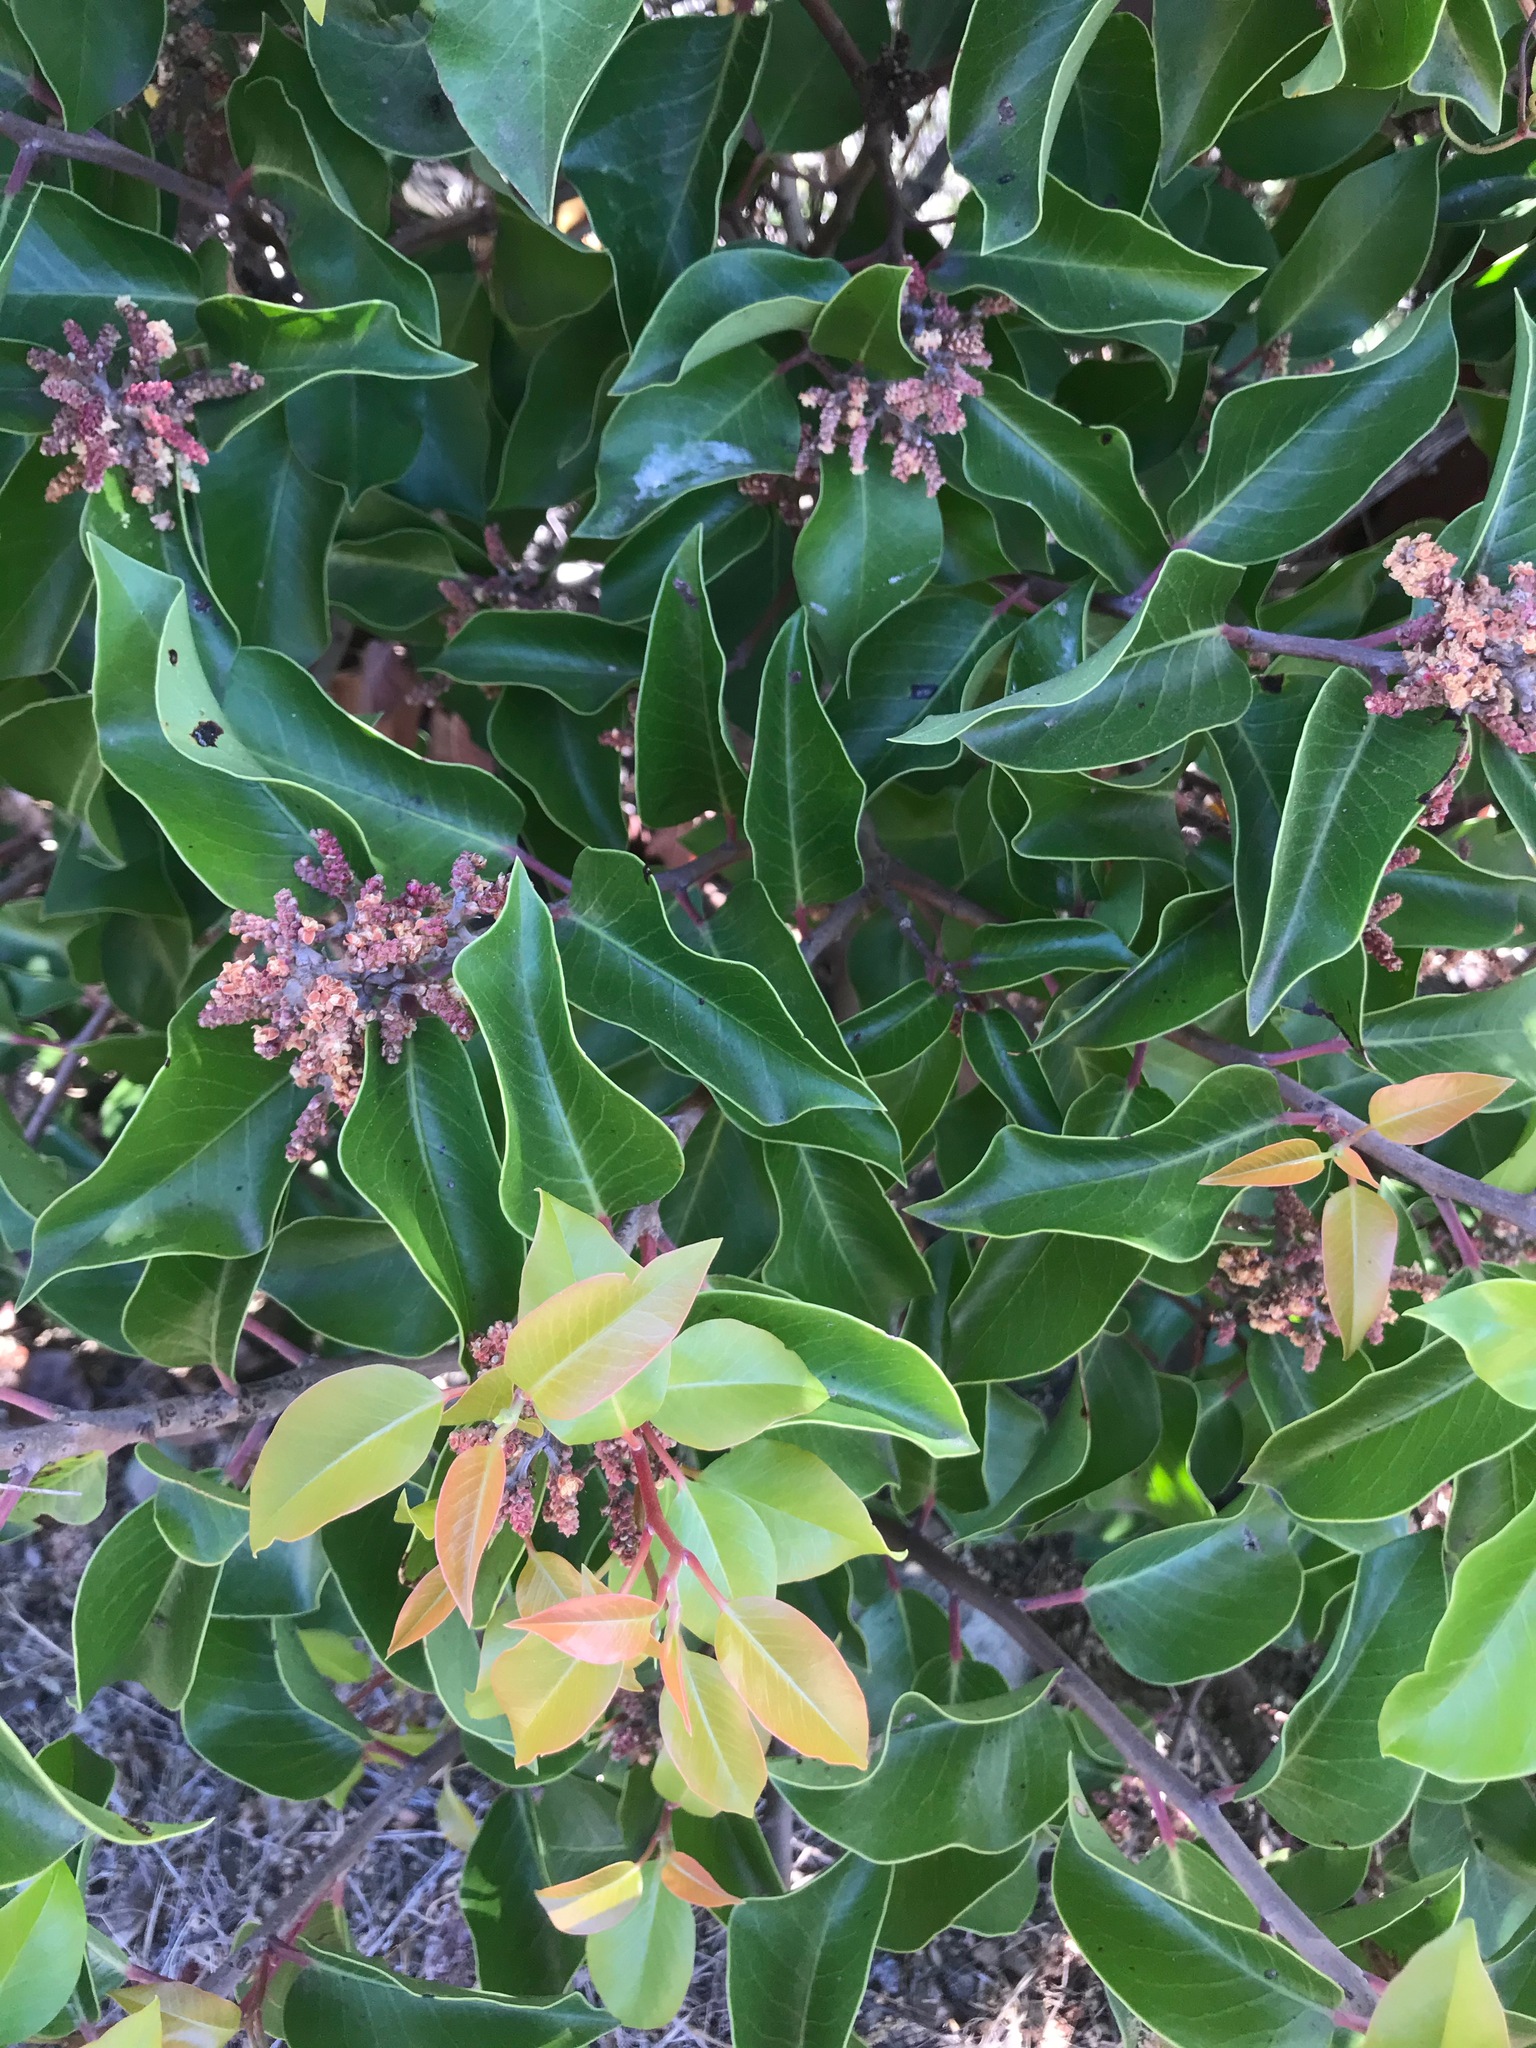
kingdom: Plantae
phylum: Tracheophyta
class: Magnoliopsida
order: Sapindales
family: Anacardiaceae
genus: Rhus
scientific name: Rhus ovata
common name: Sugar sumac
